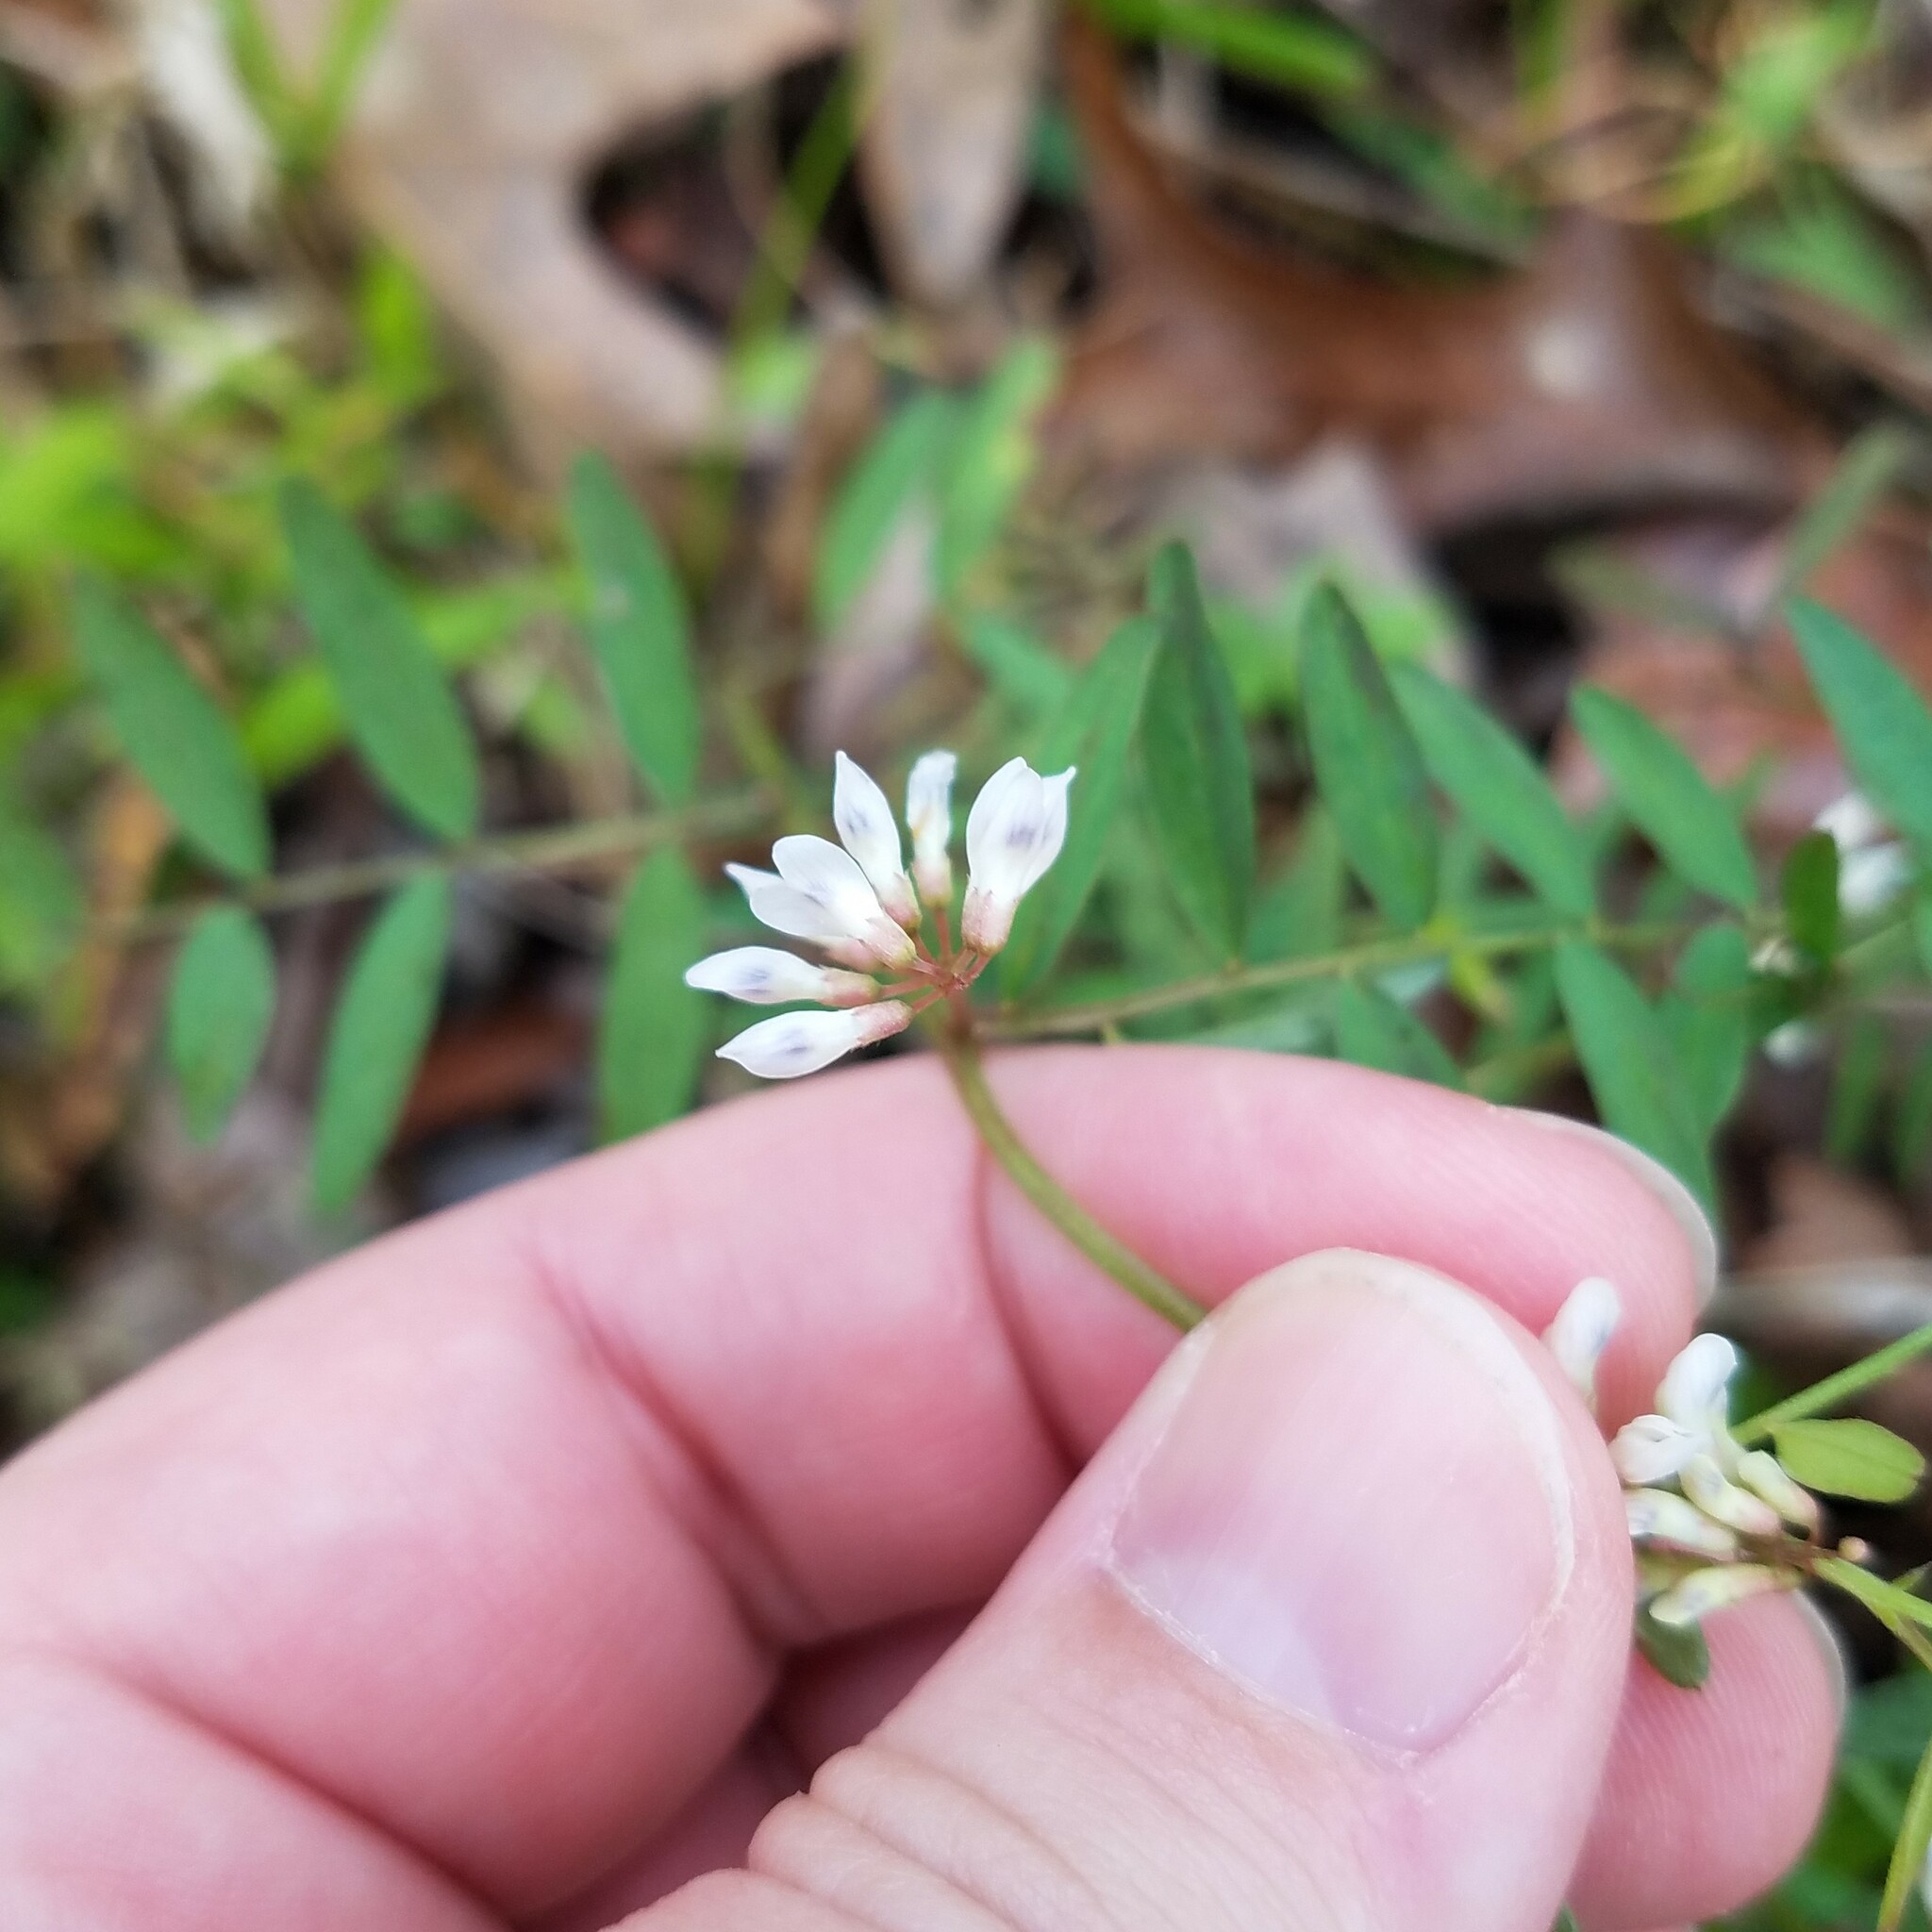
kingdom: Plantae
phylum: Tracheophyta
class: Magnoliopsida
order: Fabales
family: Fabaceae
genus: Vicia
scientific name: Vicia caroliniana
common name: Carolina vetch
